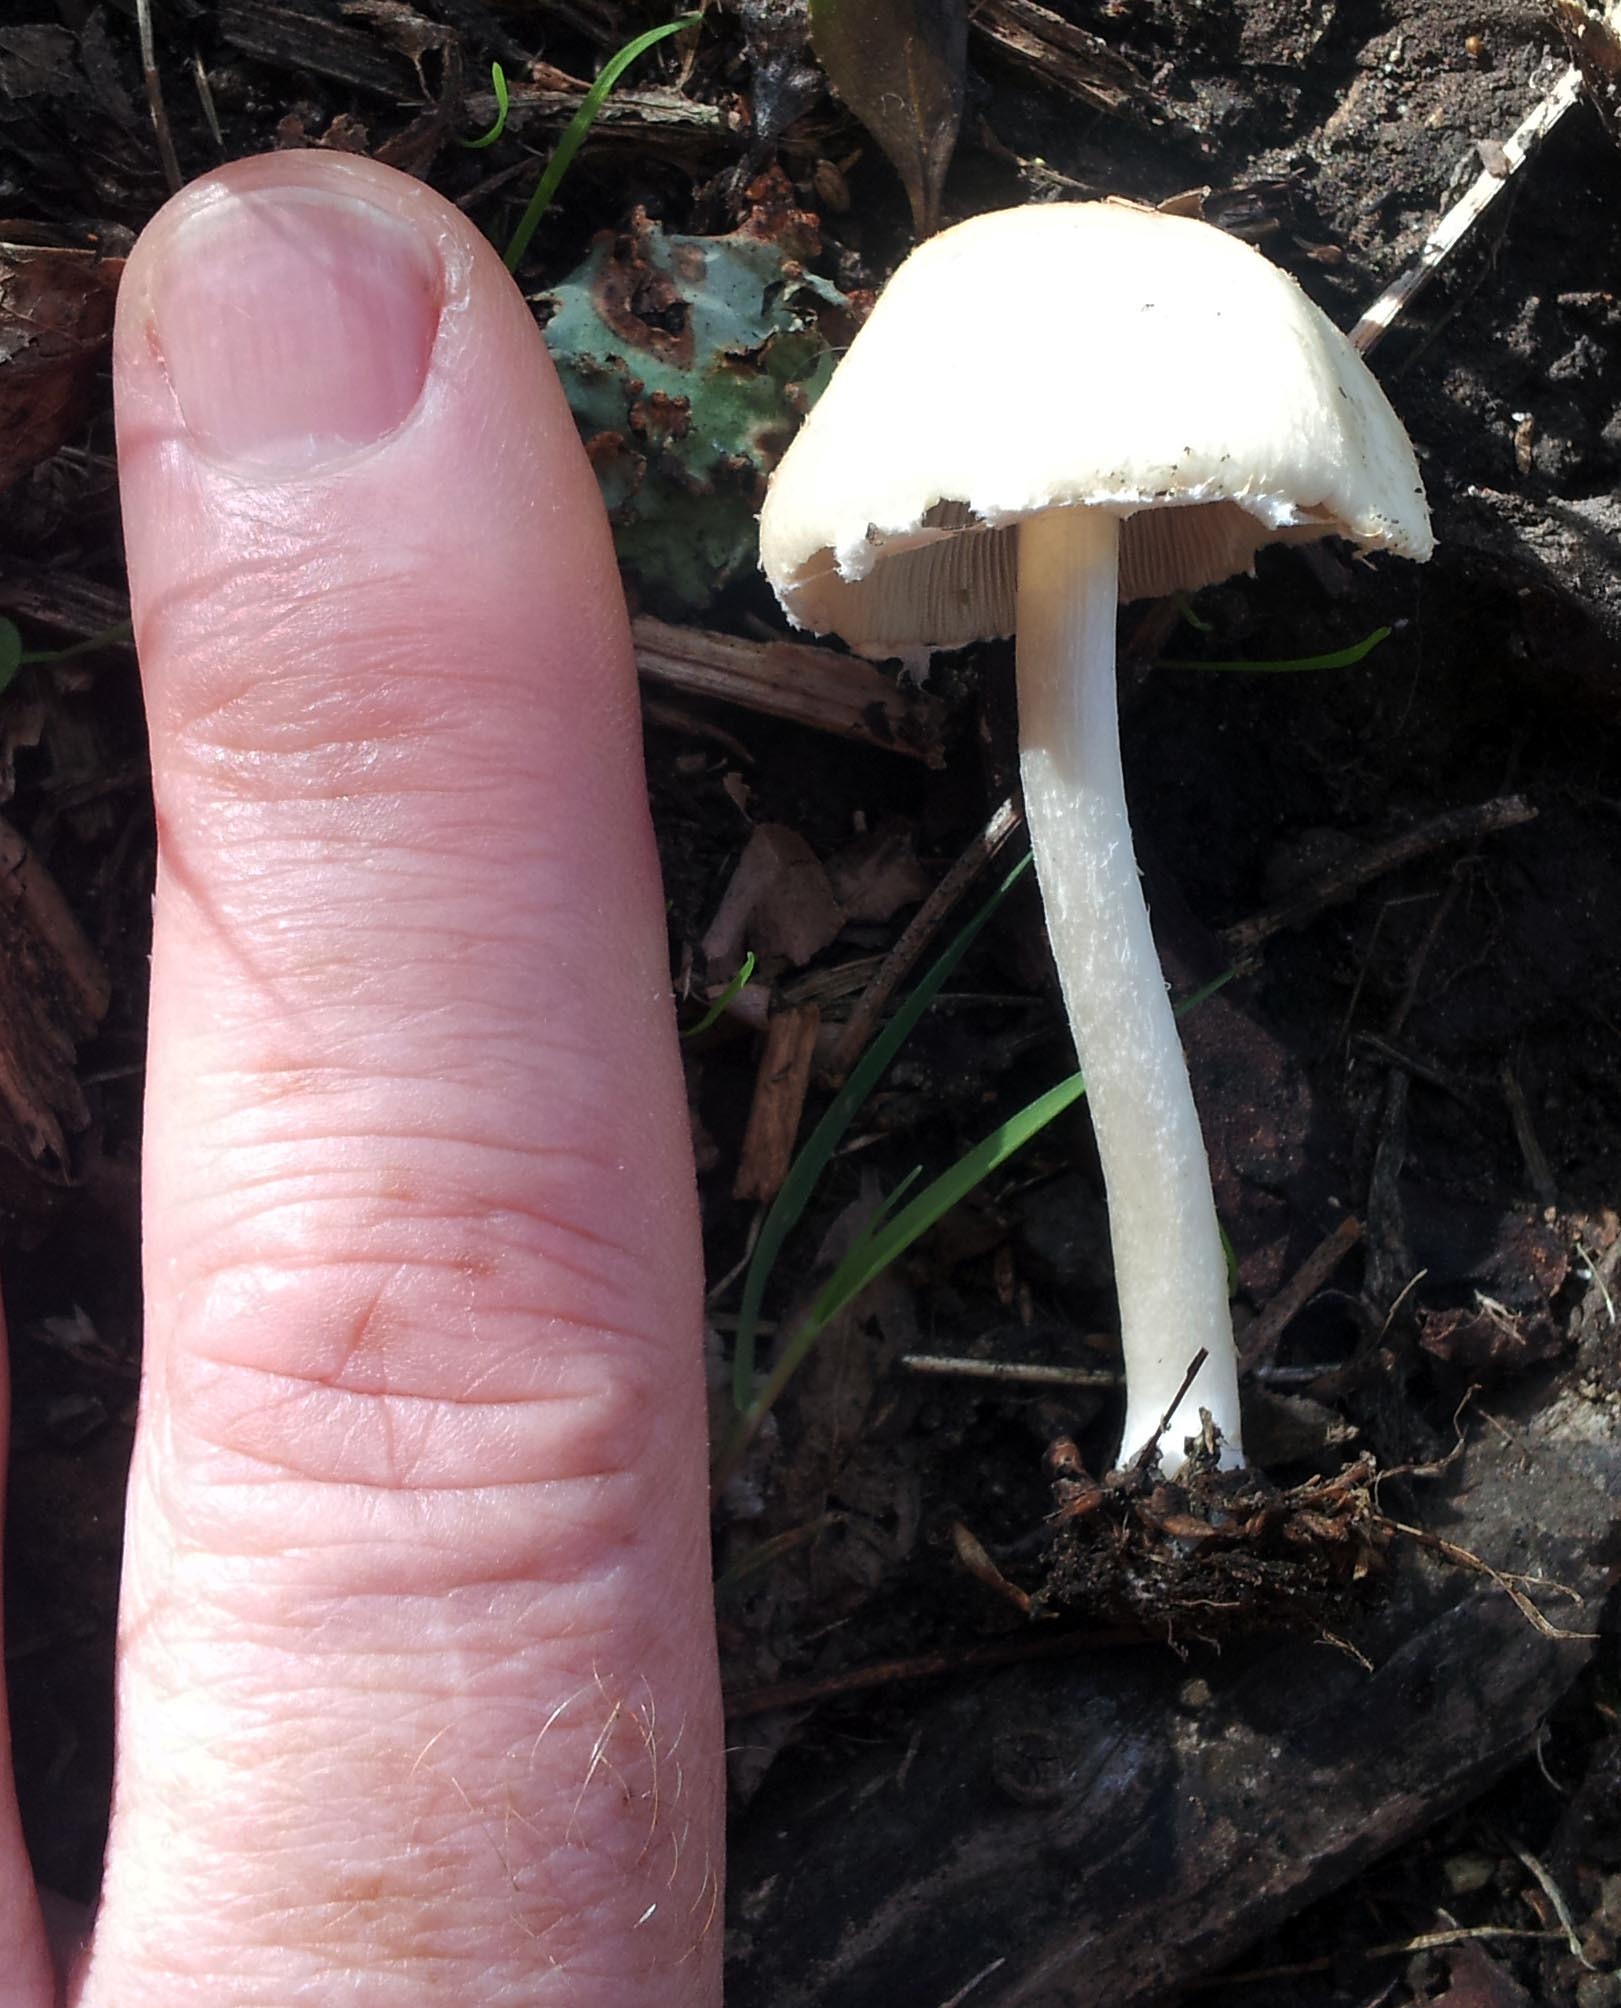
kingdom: Fungi
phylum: Basidiomycota
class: Agaricomycetes
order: Agaricales
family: Psathyrellaceae
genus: Candolleomyces
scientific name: Candolleomyces candolleanus
